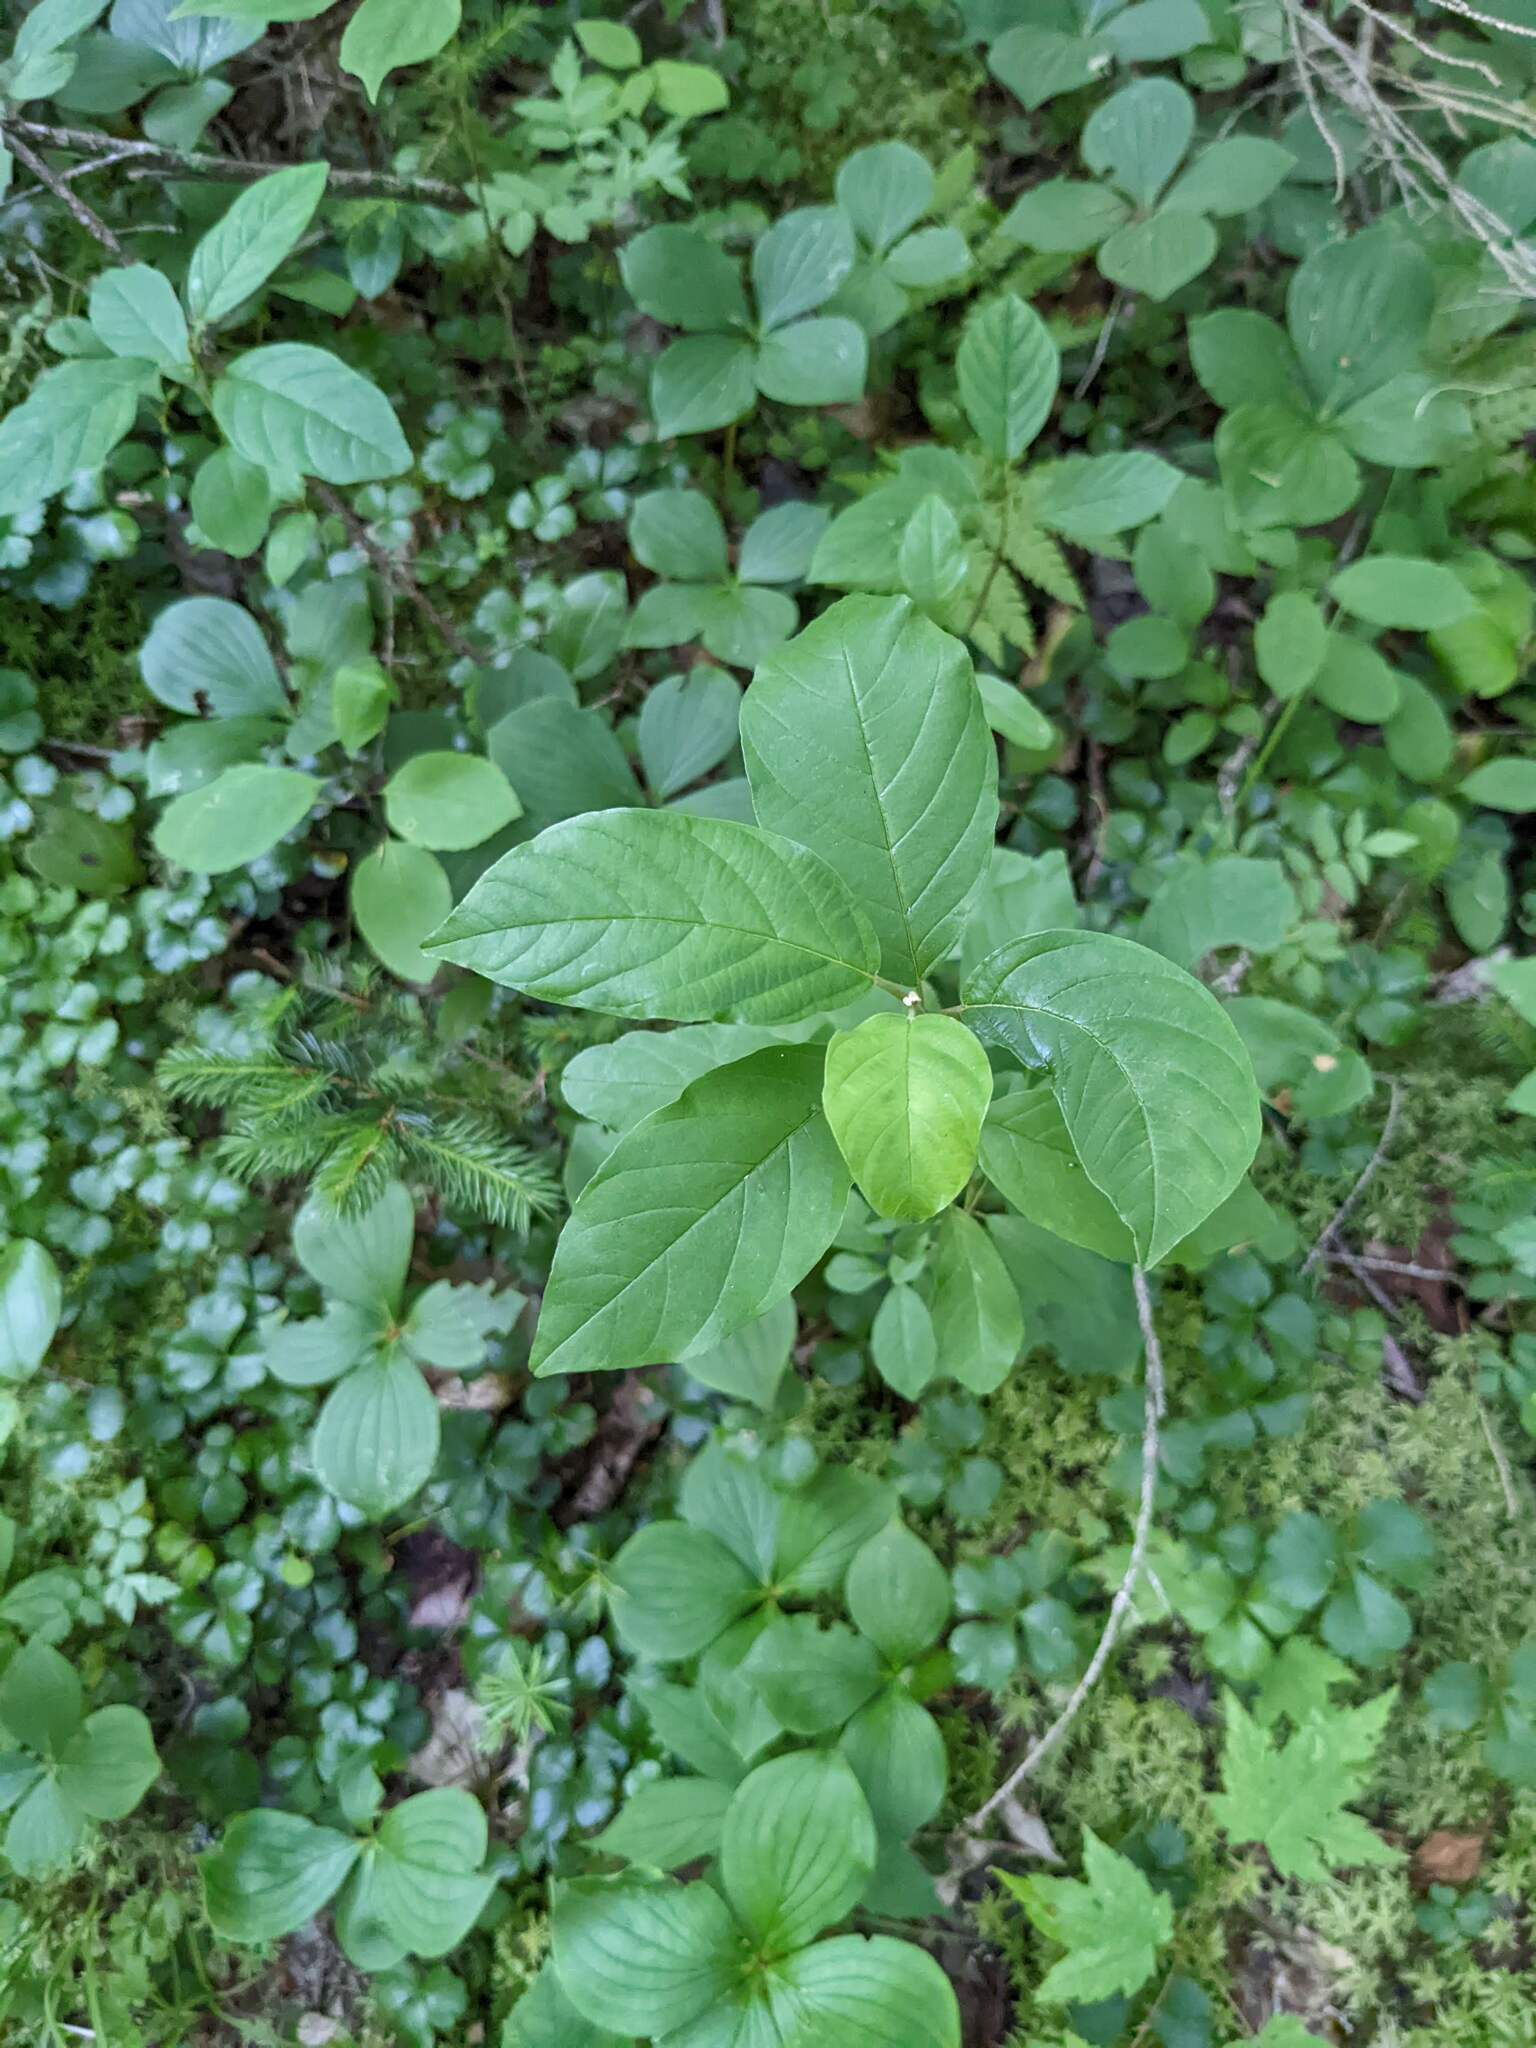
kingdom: Plantae
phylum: Tracheophyta
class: Magnoliopsida
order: Rosales
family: Rhamnaceae
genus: Frangula
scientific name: Frangula alnus
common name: Alder buckthorn
